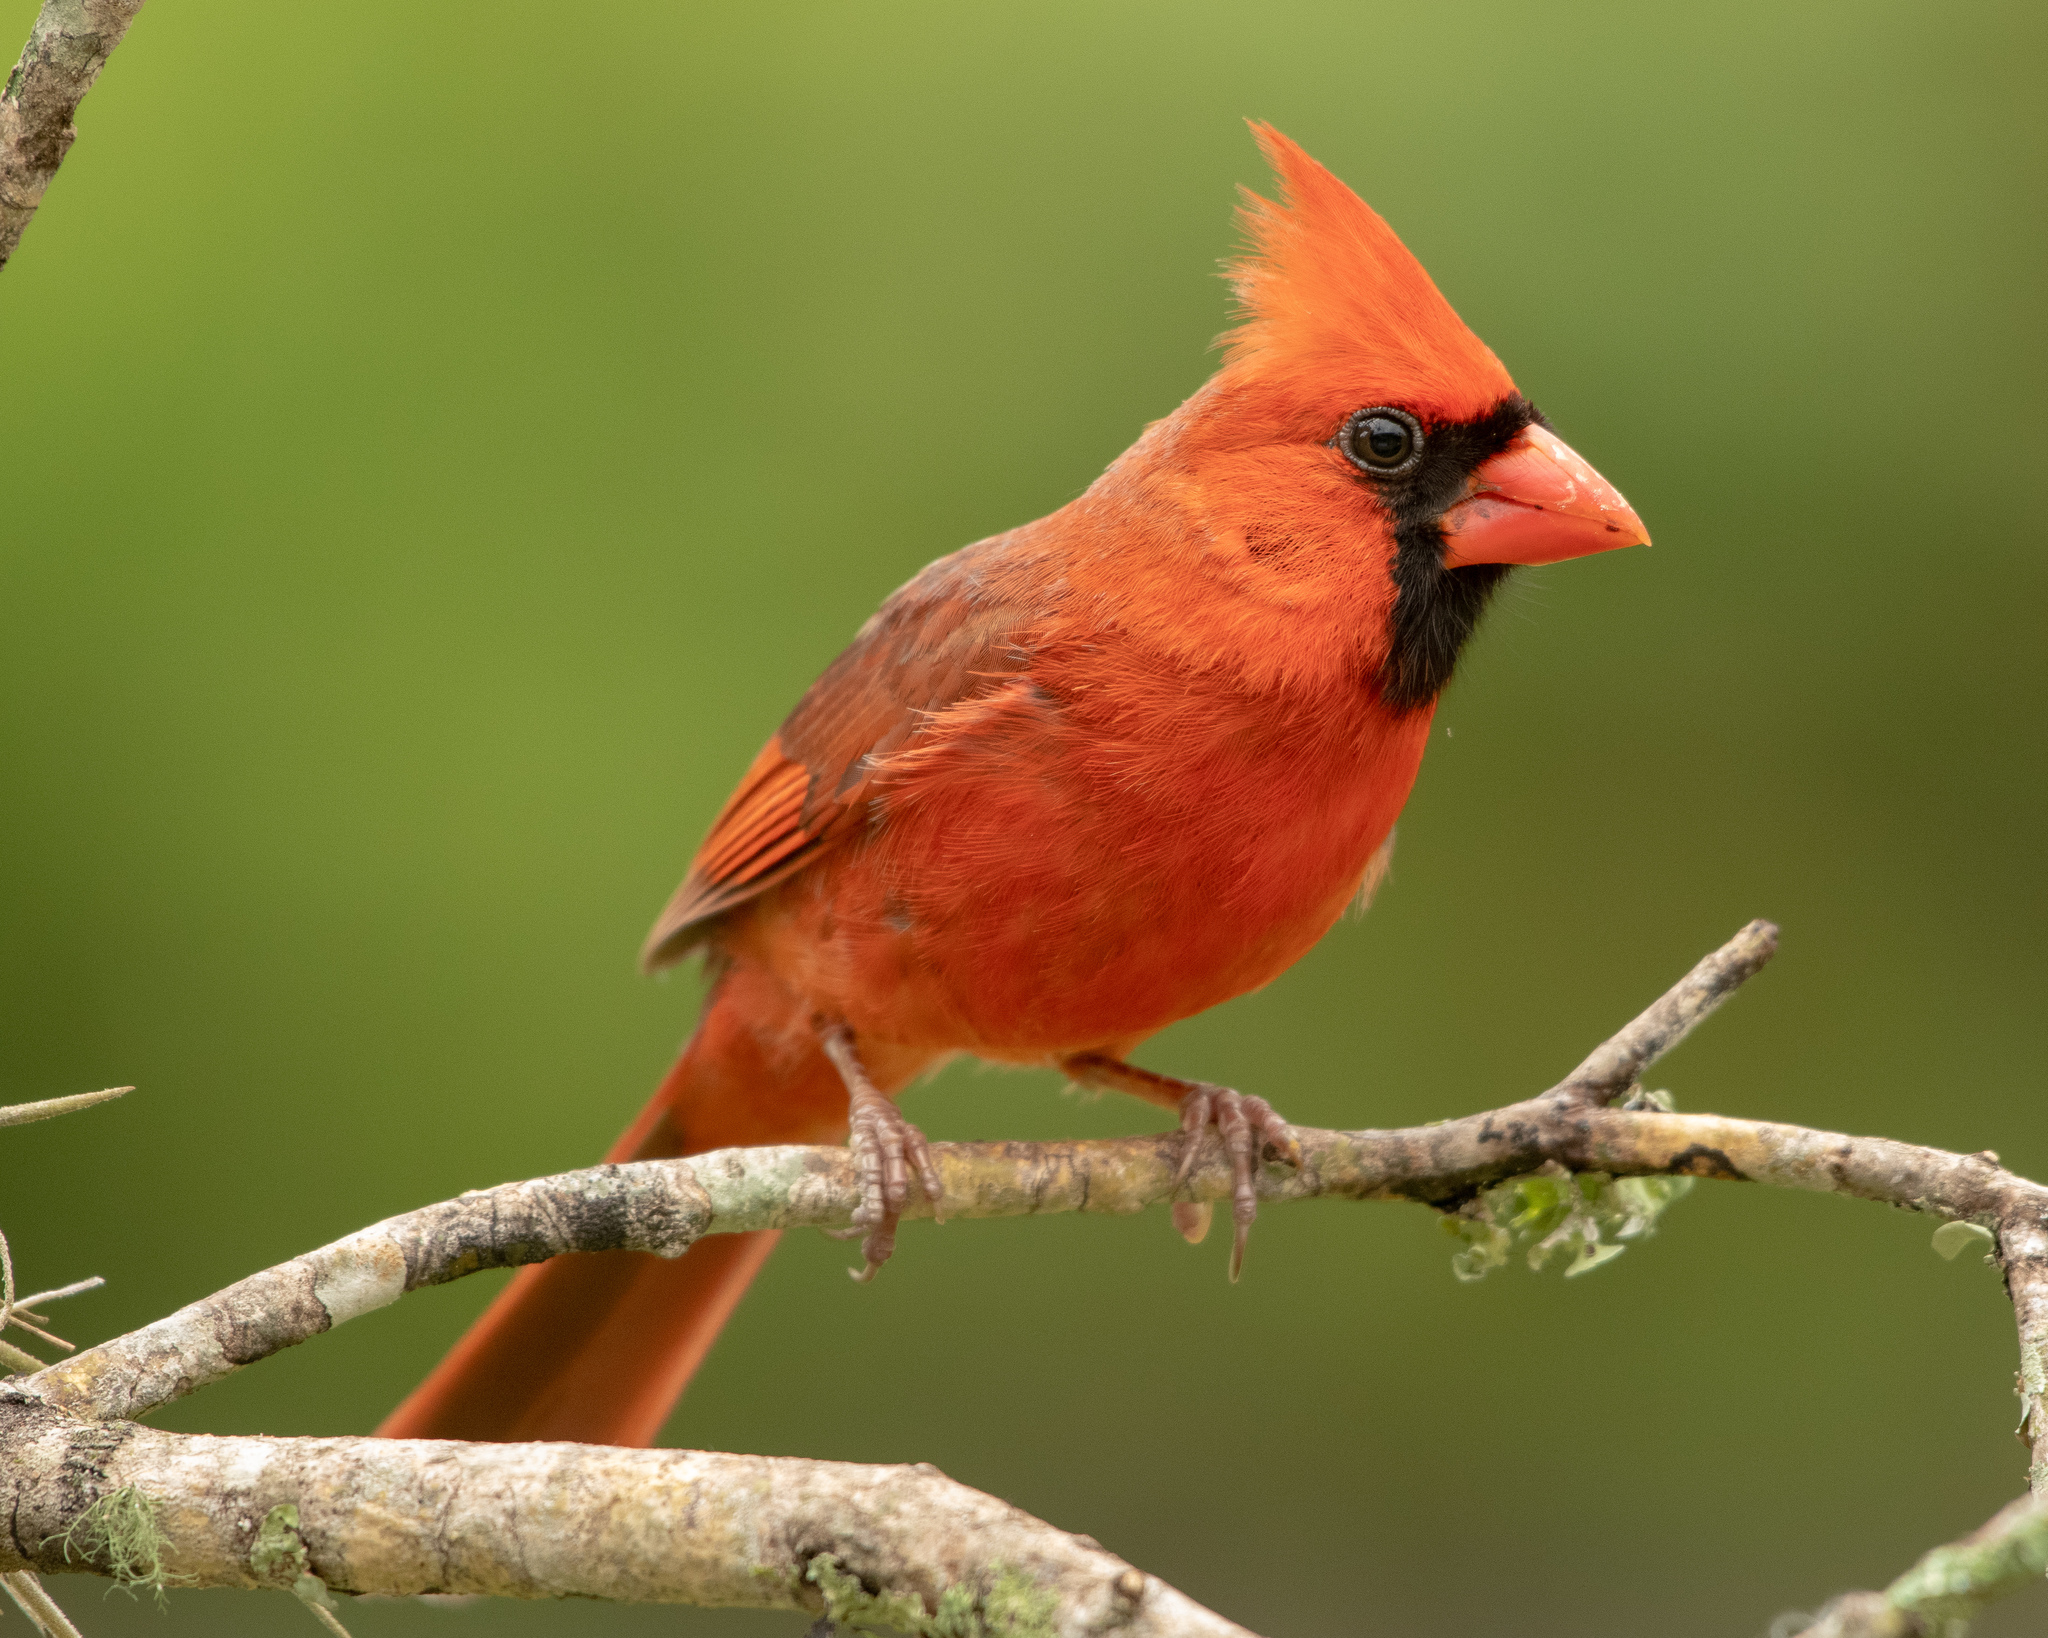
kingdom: Animalia
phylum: Chordata
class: Aves
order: Passeriformes
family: Cardinalidae
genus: Cardinalis
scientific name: Cardinalis cardinalis
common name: Northern cardinal
